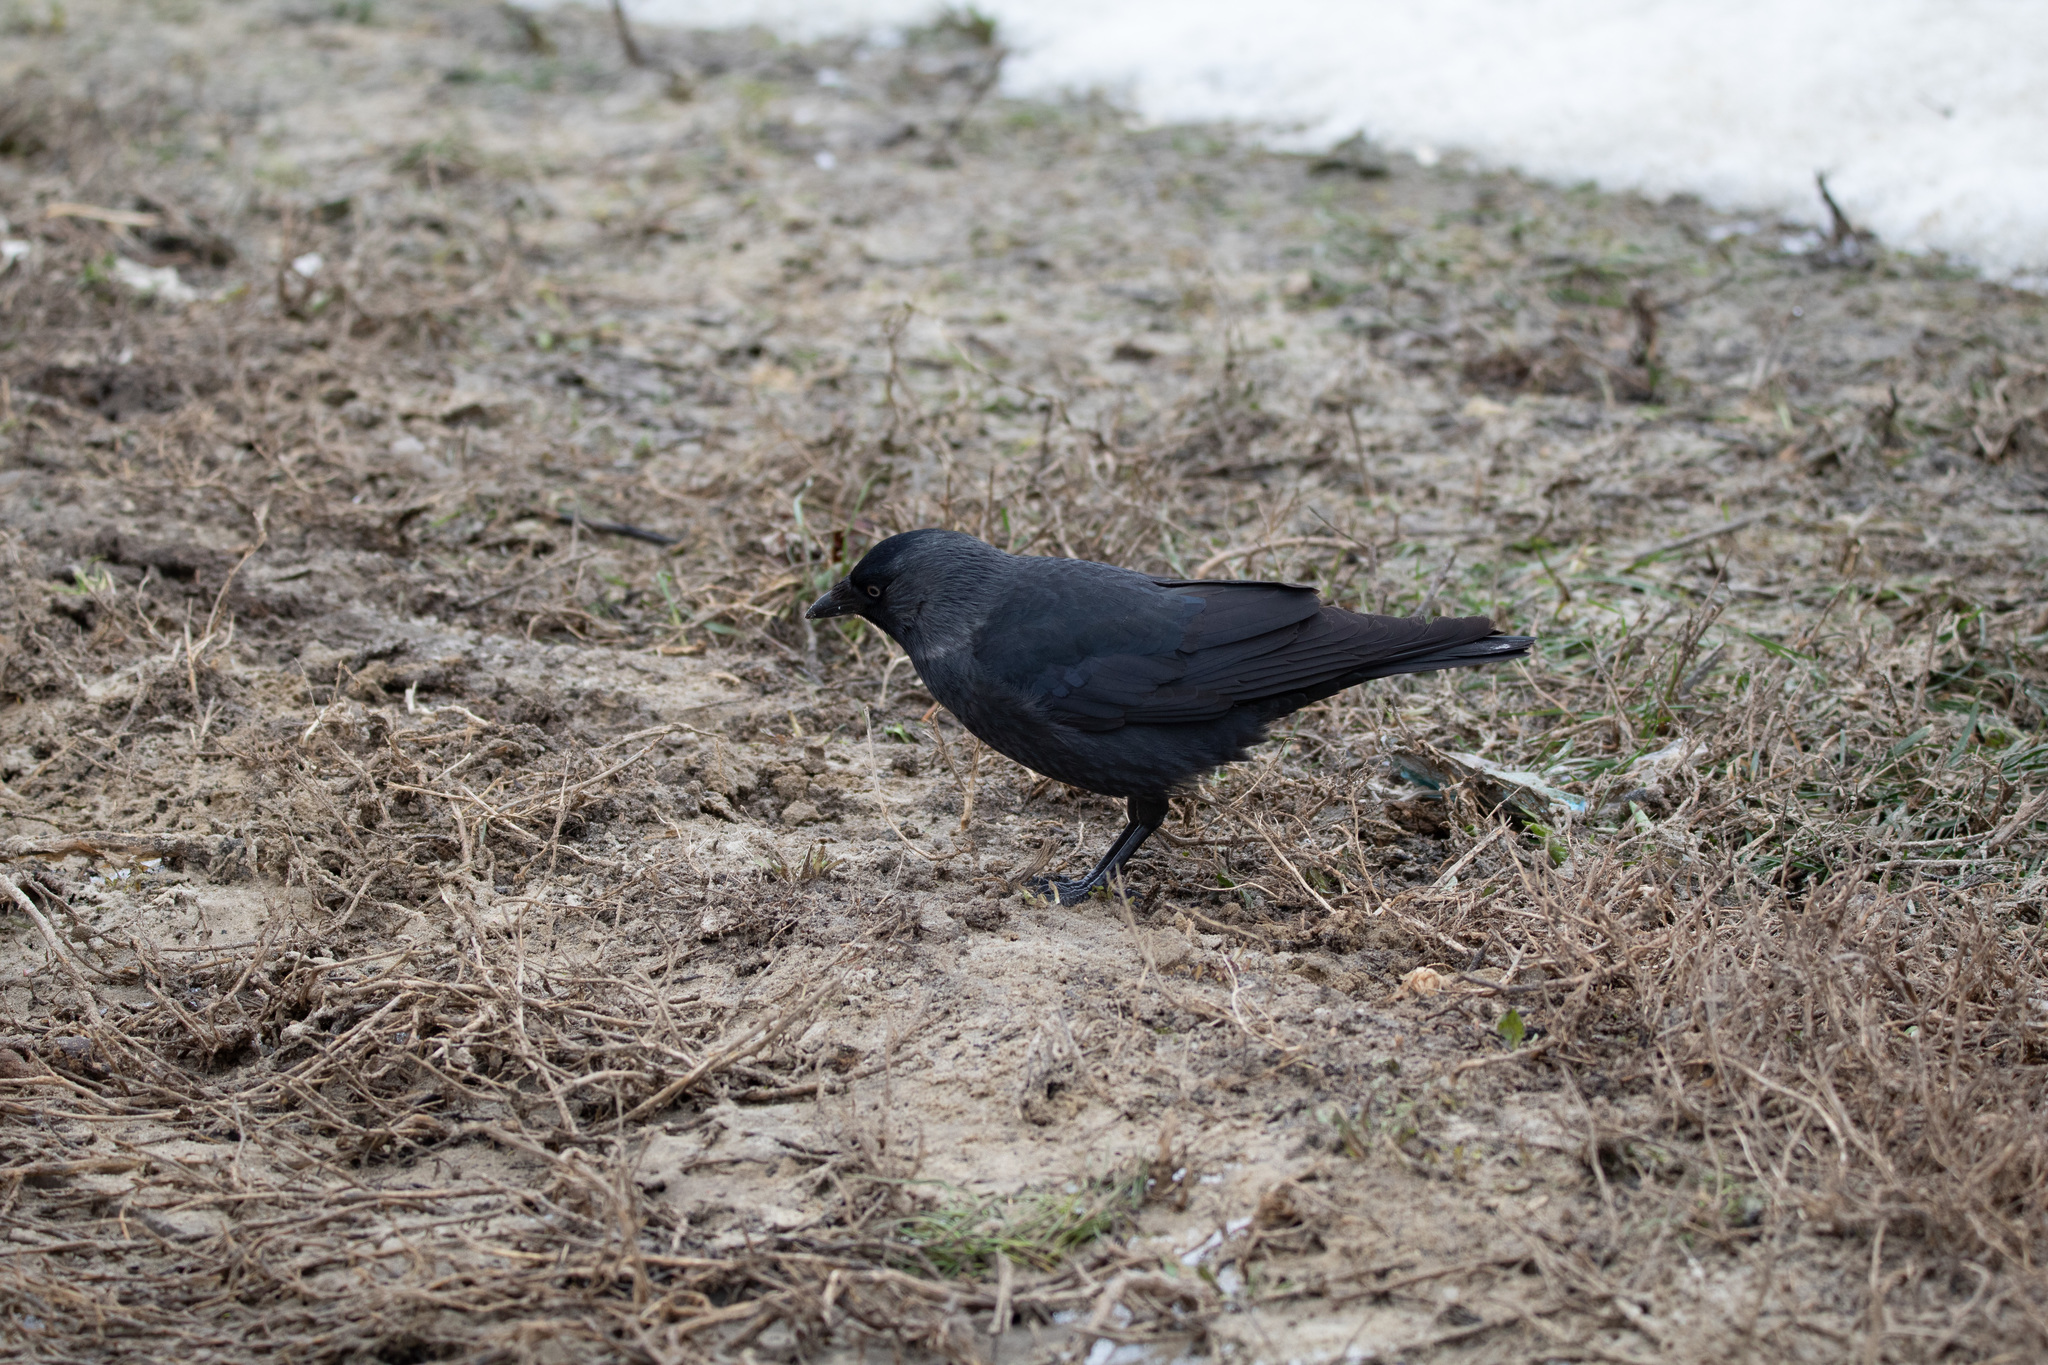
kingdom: Animalia
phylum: Chordata
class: Aves
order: Passeriformes
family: Corvidae
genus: Coloeus
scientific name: Coloeus monedula
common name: Western jackdaw
